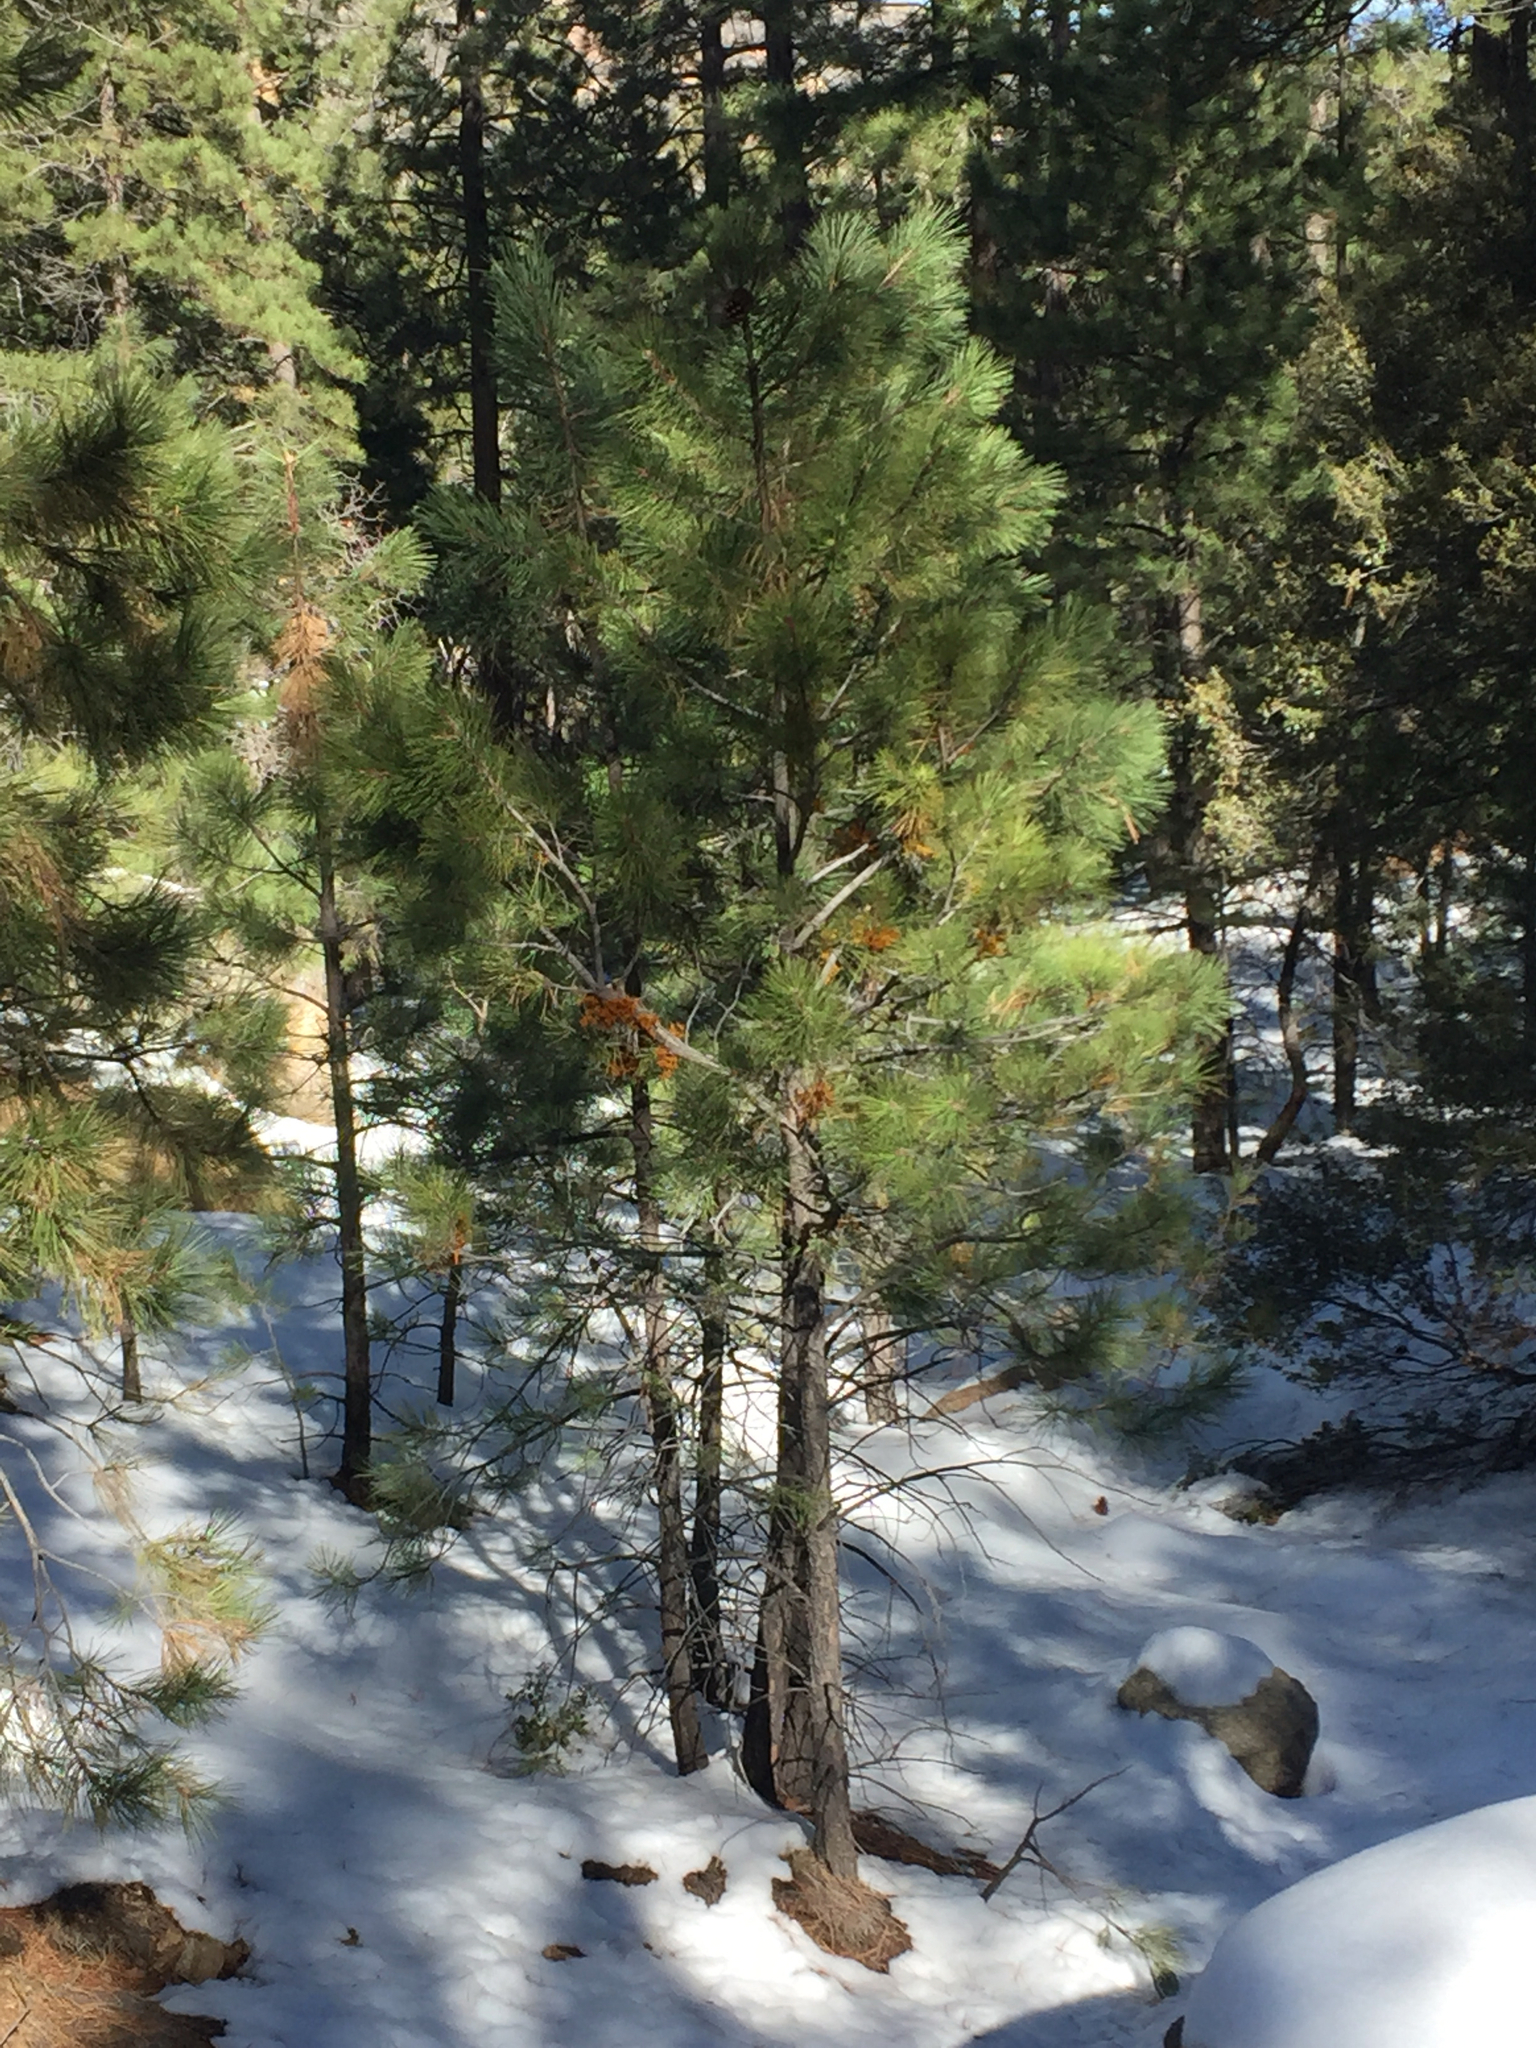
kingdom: Plantae
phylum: Tracheophyta
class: Pinopsida
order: Pinales
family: Pinaceae
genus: Pinus
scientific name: Pinus ponderosa
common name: Western yellow-pine
